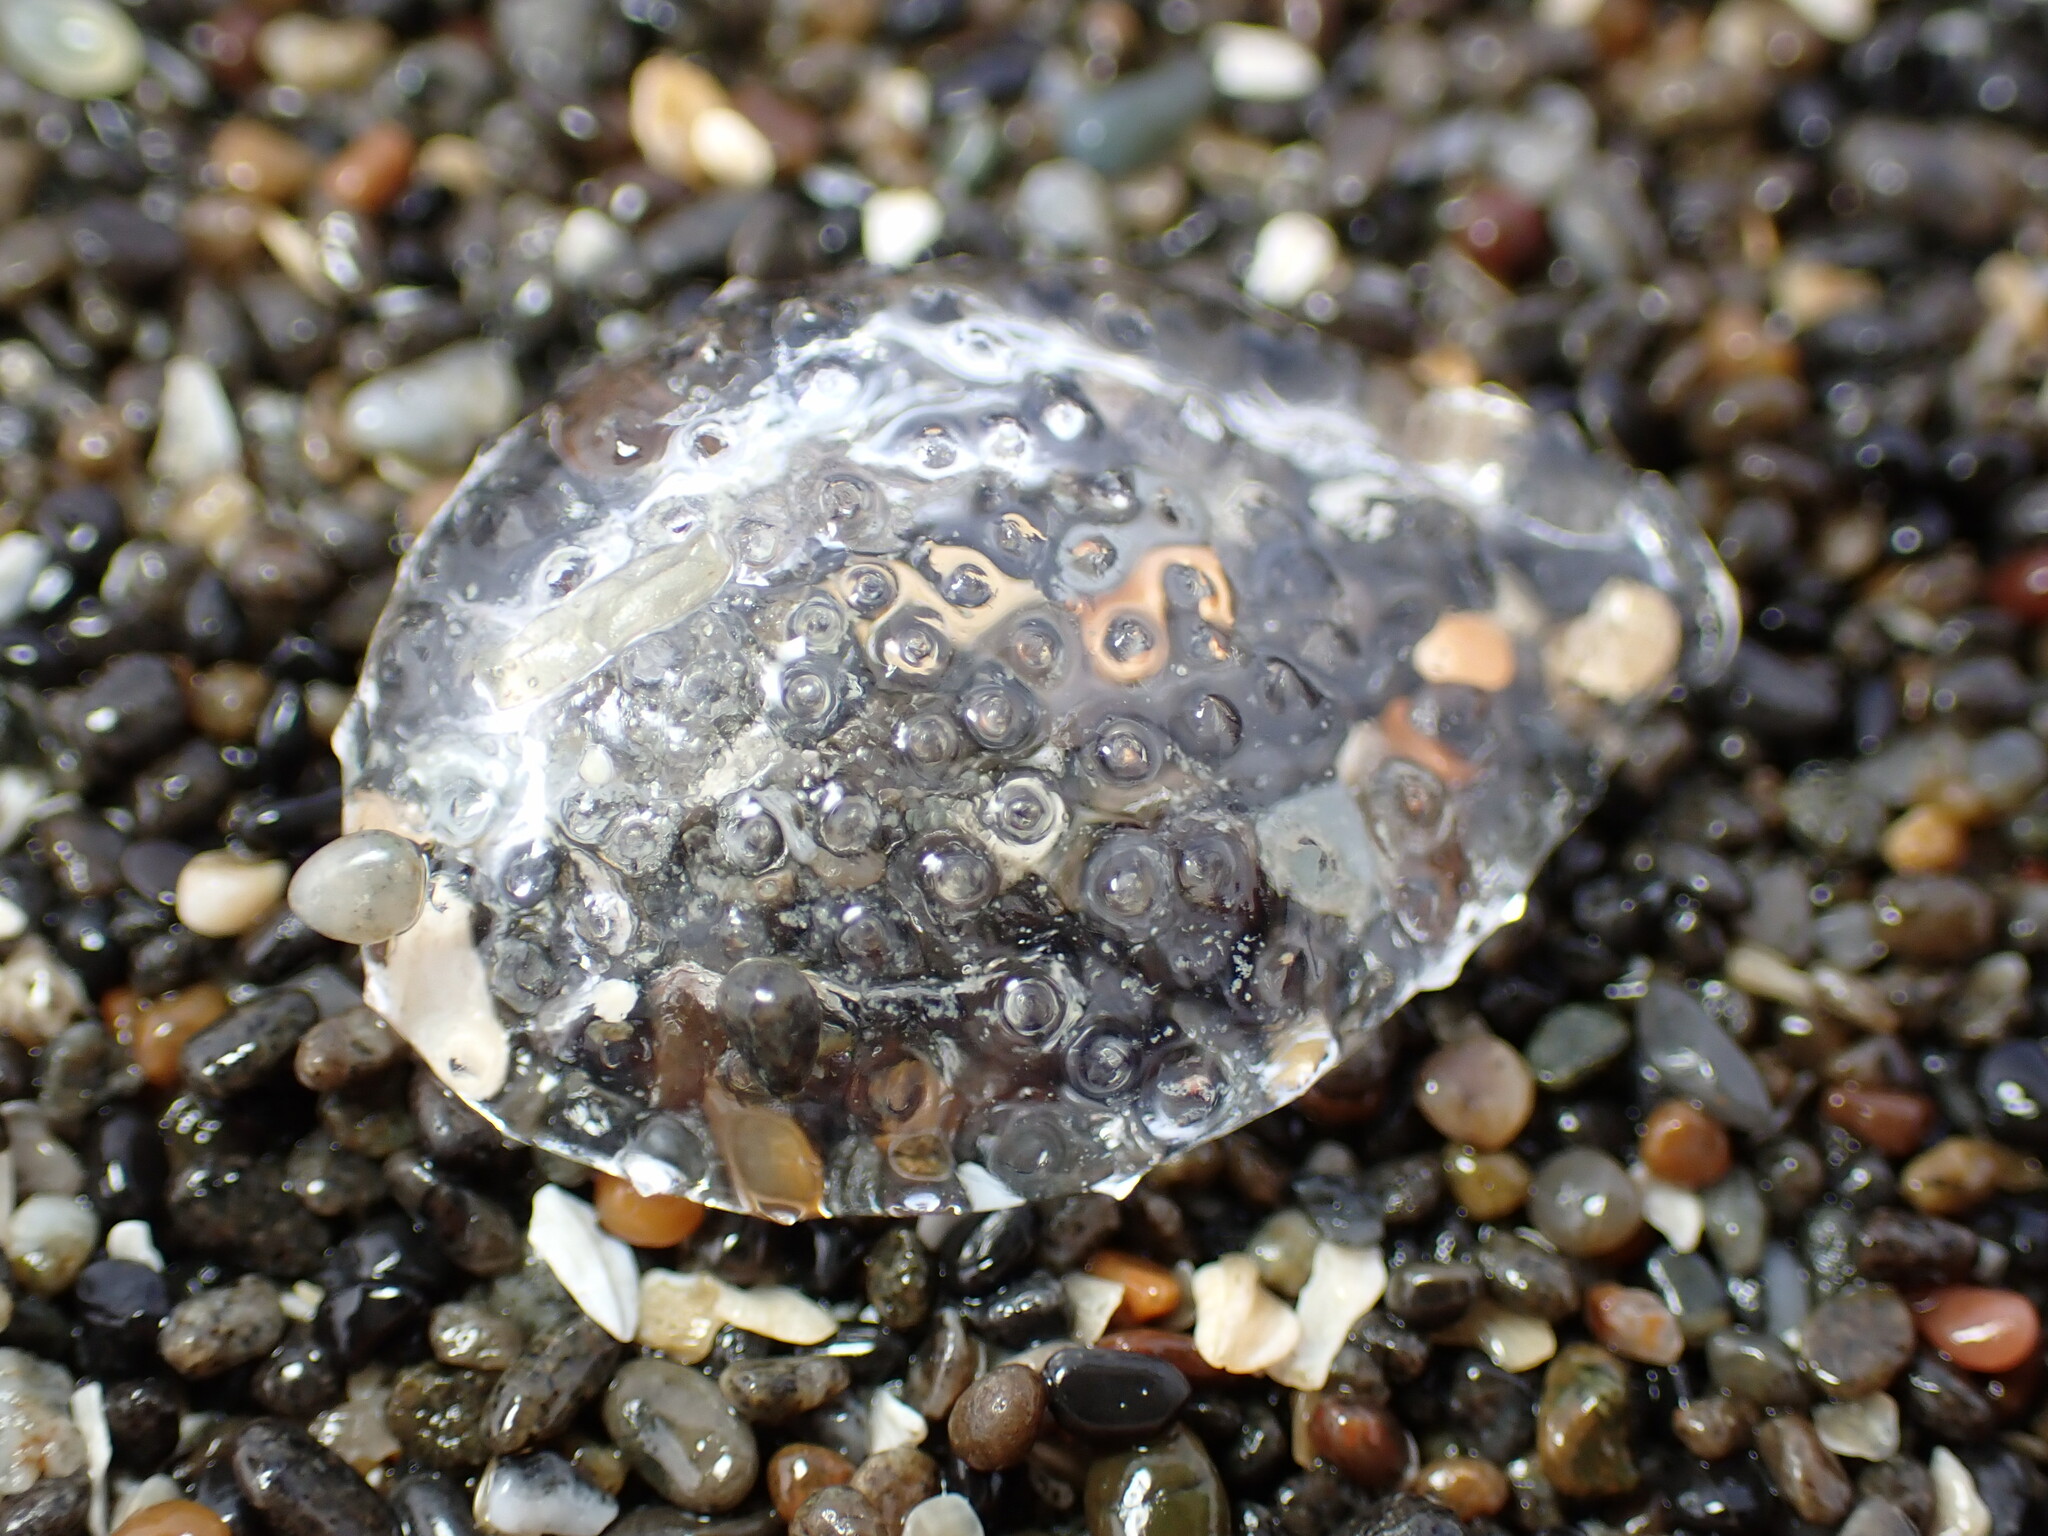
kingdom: Animalia
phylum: Mollusca
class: Gastropoda
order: Pteropoda
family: Cymbuliidae
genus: Corolla
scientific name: Corolla spectabilis
